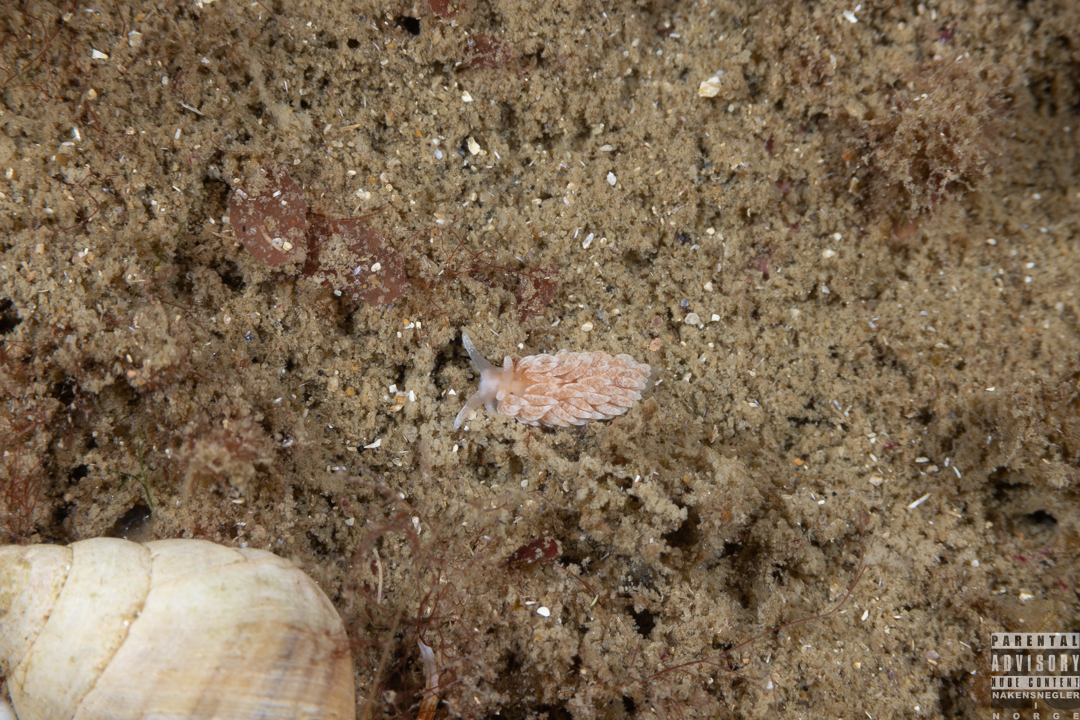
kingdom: Animalia
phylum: Mollusca
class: Gastropoda
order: Nudibranchia
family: Aeolidiidae
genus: Aeolidiella
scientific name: Aeolidiella glauca
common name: Orange-brown aeolid
